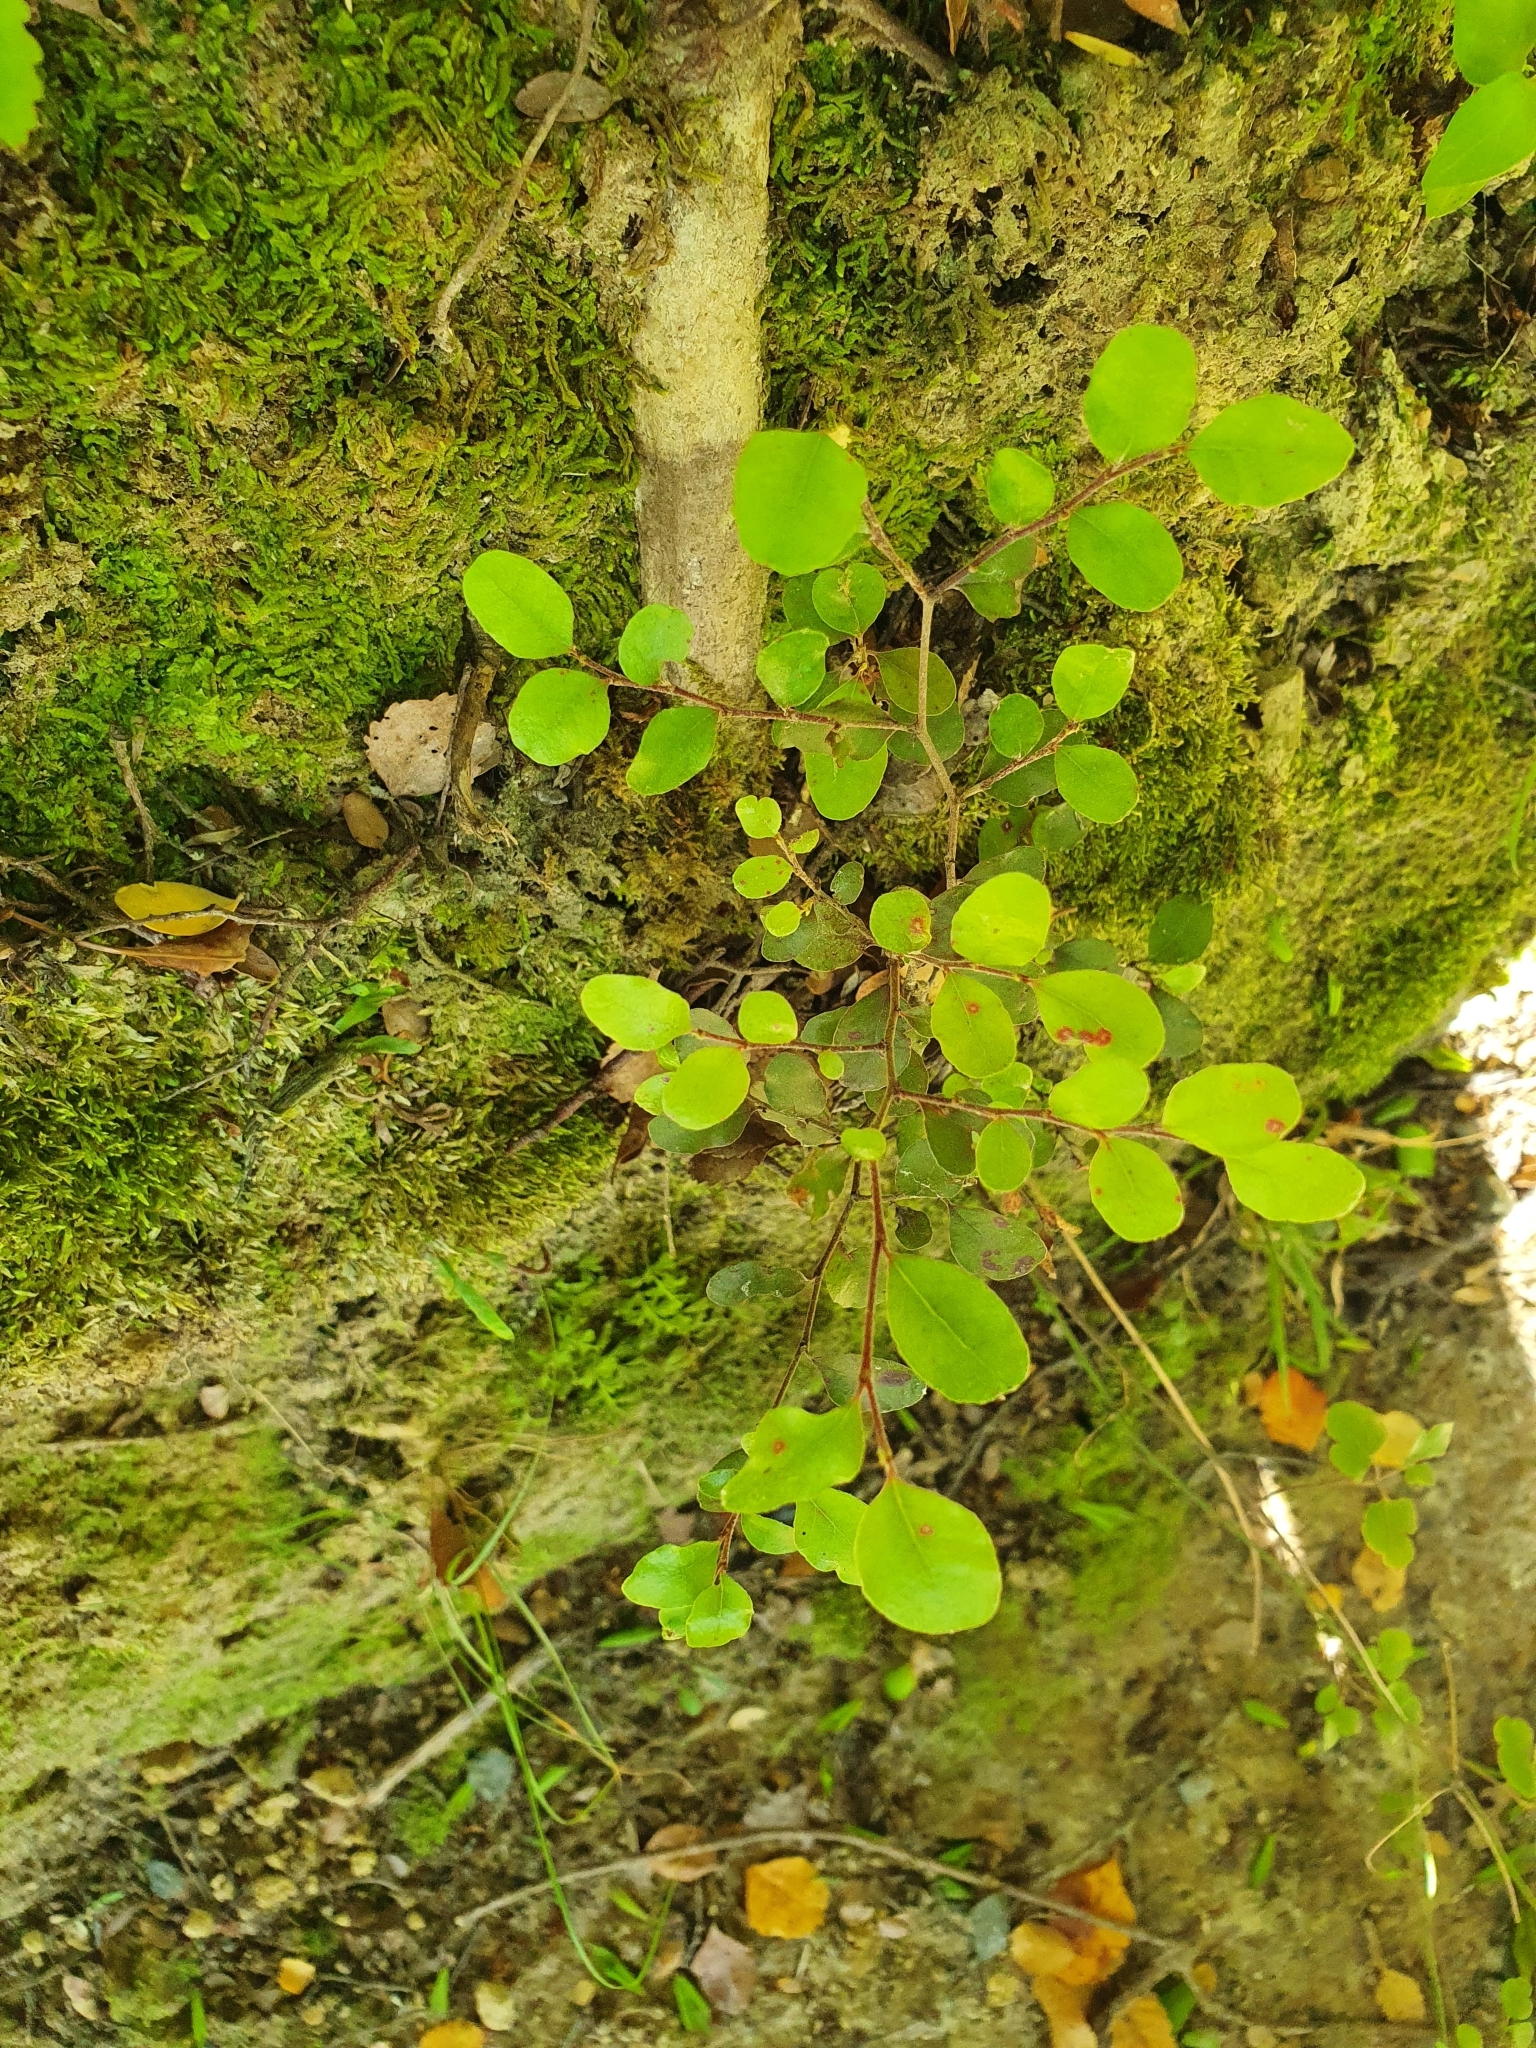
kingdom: Plantae
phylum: Tracheophyta
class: Magnoliopsida
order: Fagales
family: Nothofagaceae
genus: Nothofagus
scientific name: Nothofagus solandri
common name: Black beech
